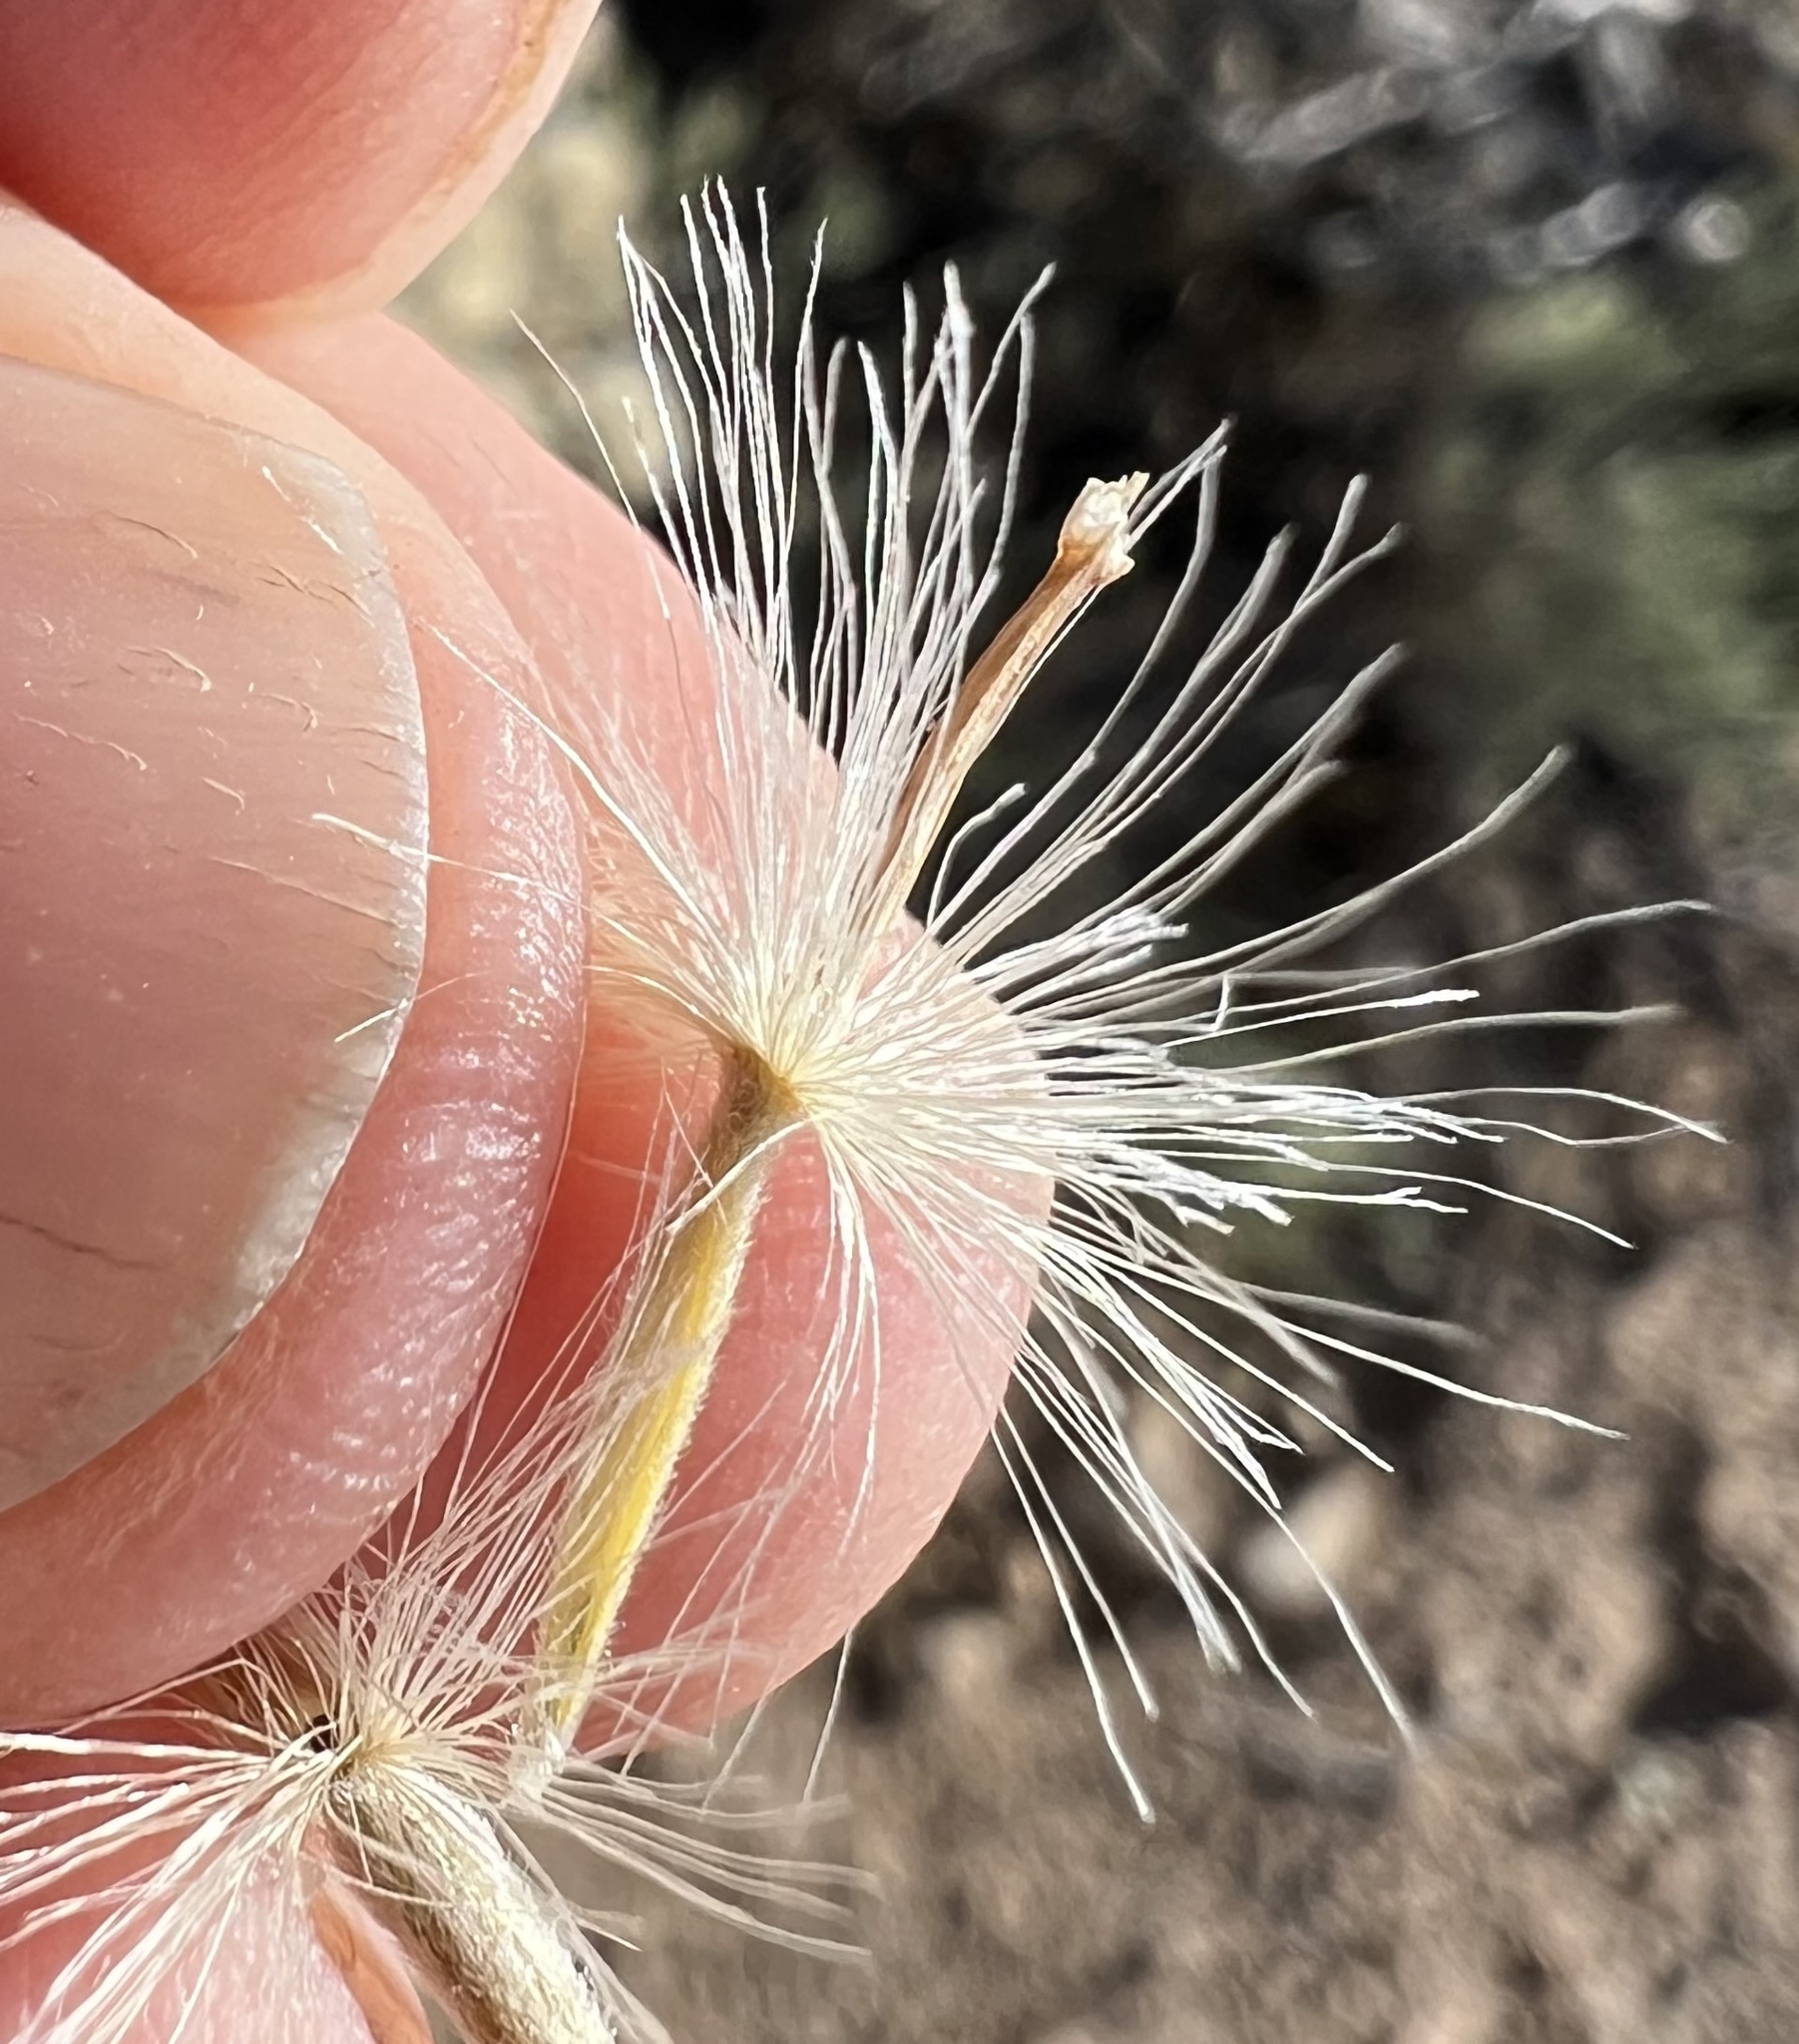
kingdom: Plantae
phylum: Tracheophyta
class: Magnoliopsida
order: Asterales
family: Asteraceae
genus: Tetradymia
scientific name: Tetradymia stenolepis
